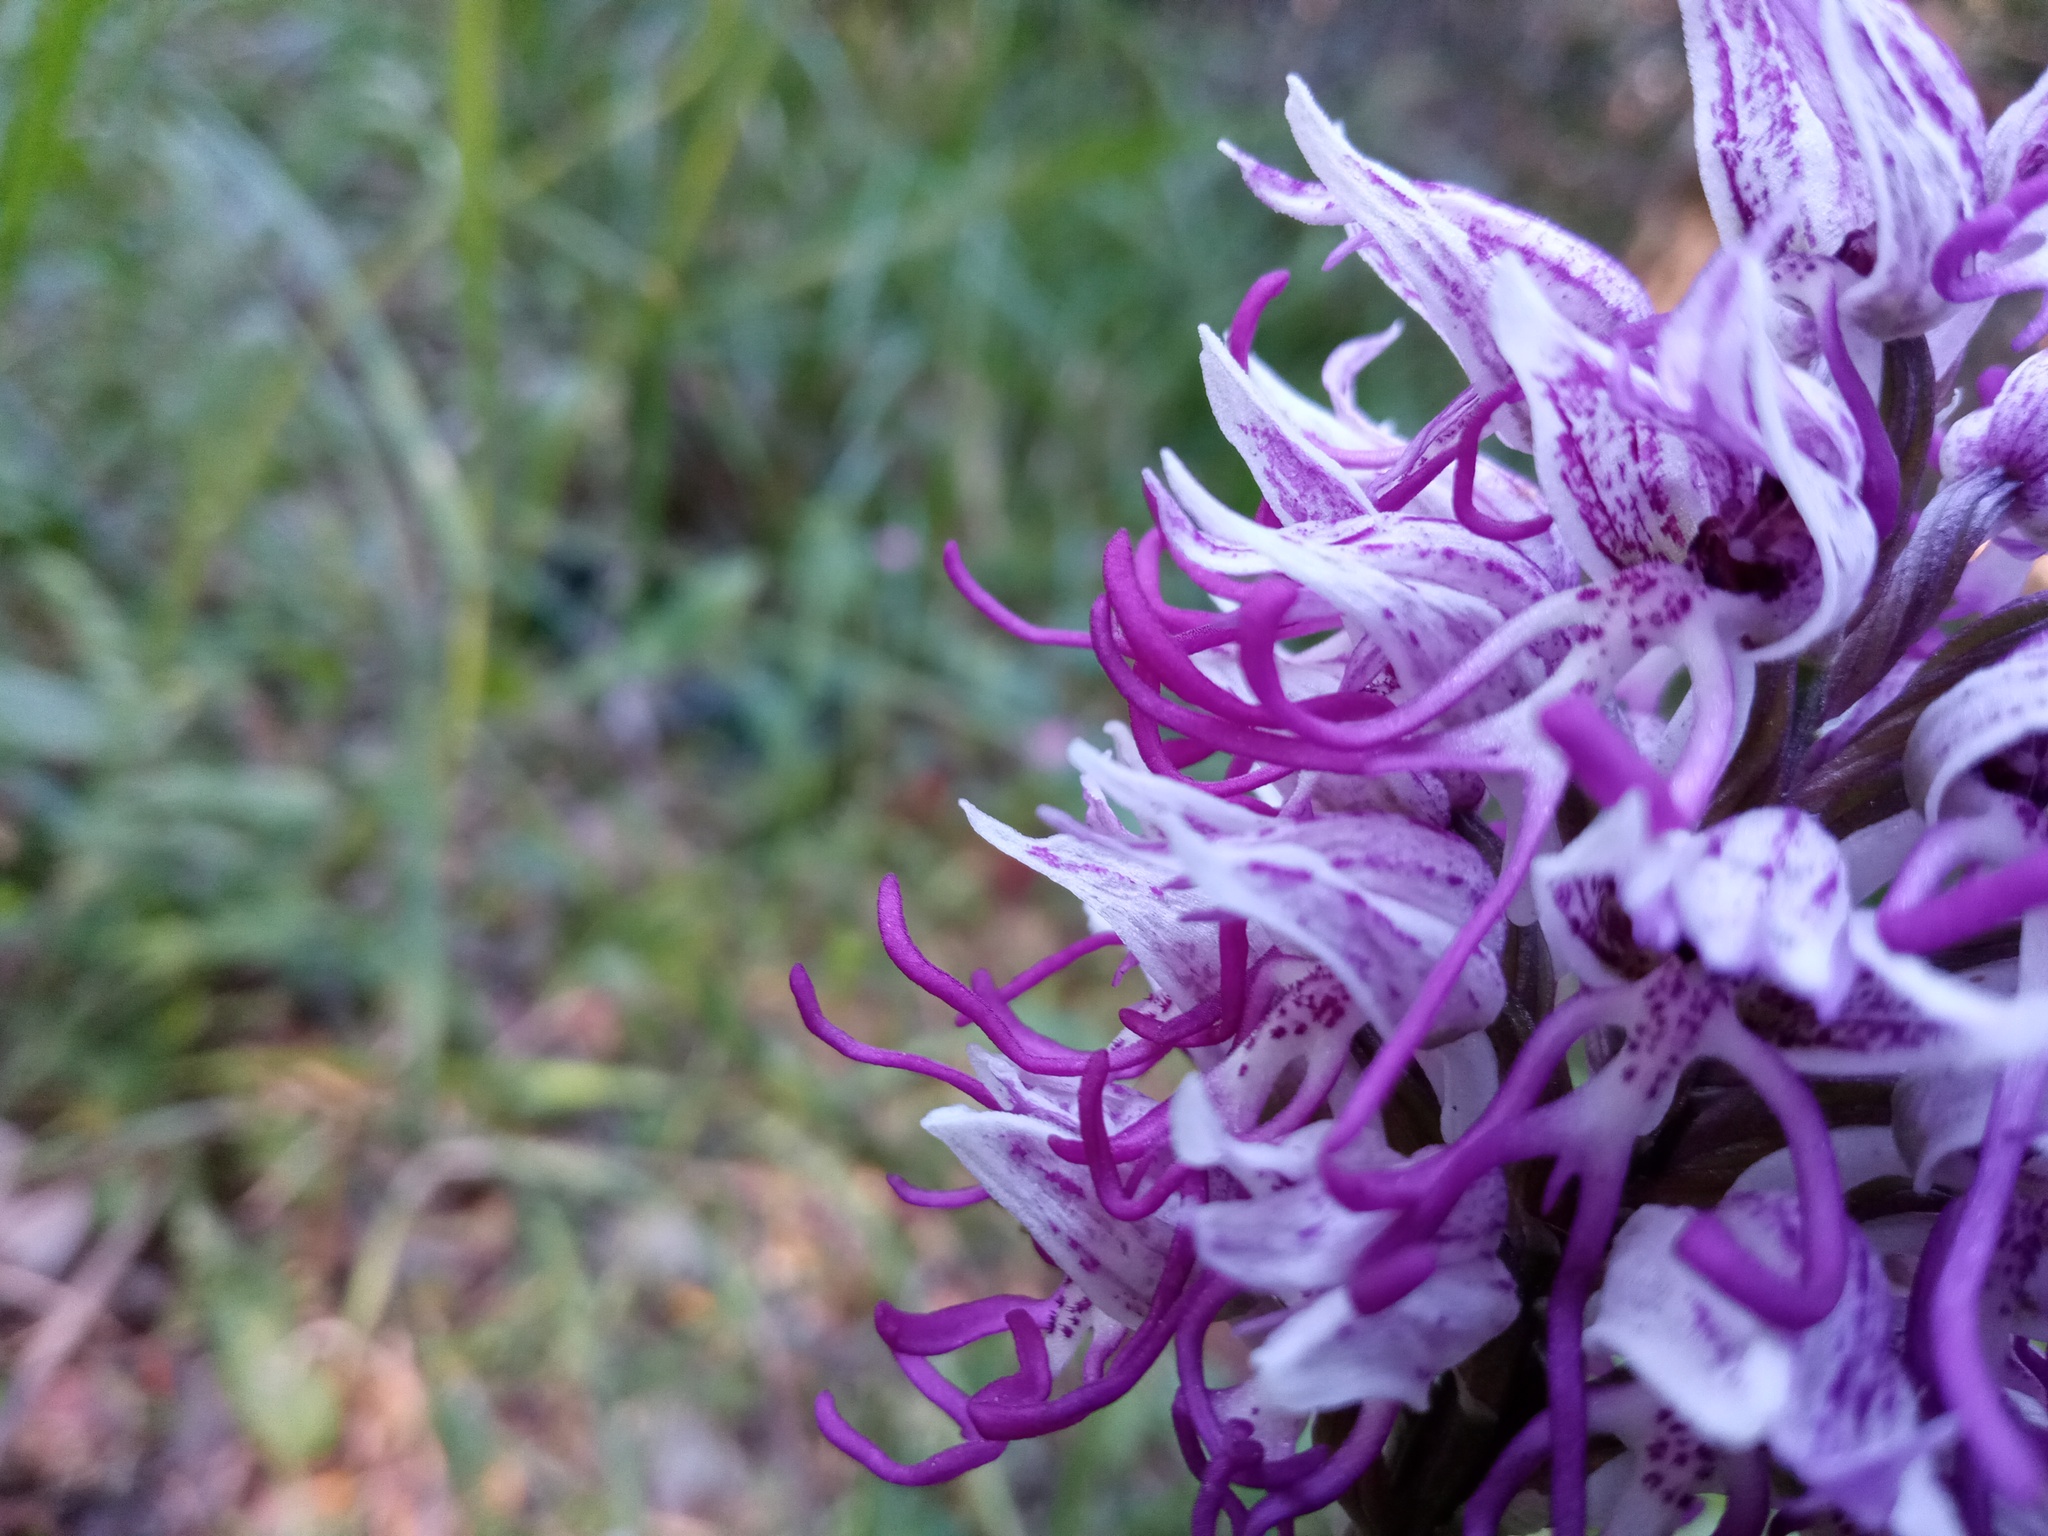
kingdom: Plantae
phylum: Tracheophyta
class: Liliopsida
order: Asparagales
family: Orchidaceae
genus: Orchis
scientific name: Orchis simia
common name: Monkey orchid
